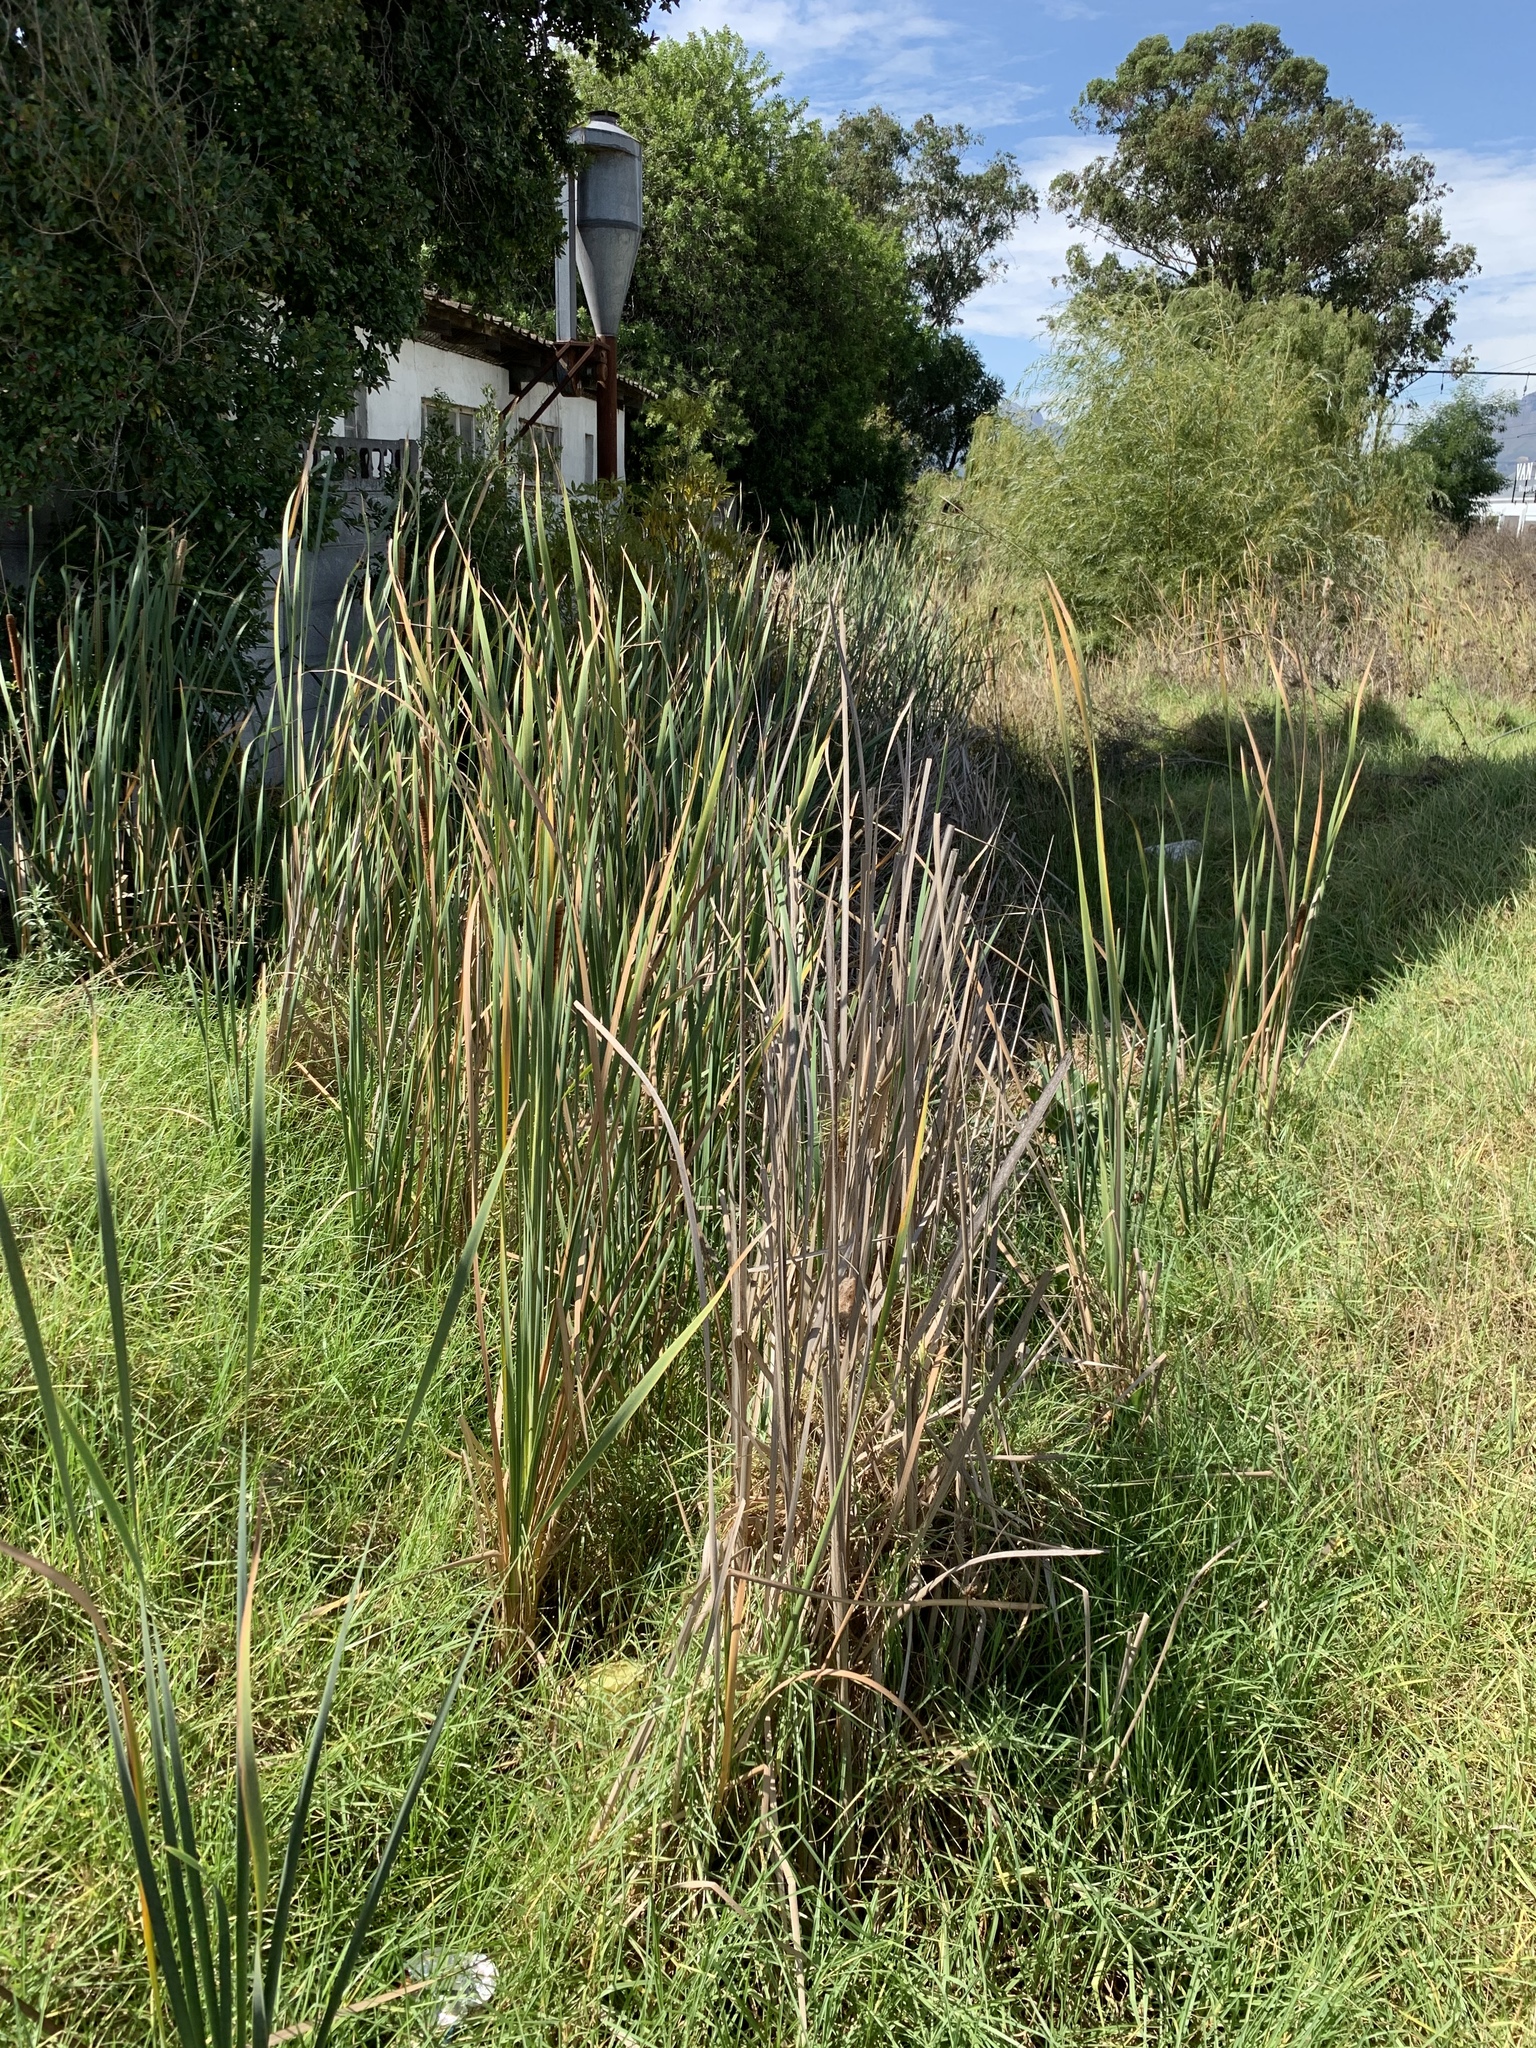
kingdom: Plantae
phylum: Tracheophyta
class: Liliopsida
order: Poales
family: Typhaceae
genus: Typha
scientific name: Typha capensis
